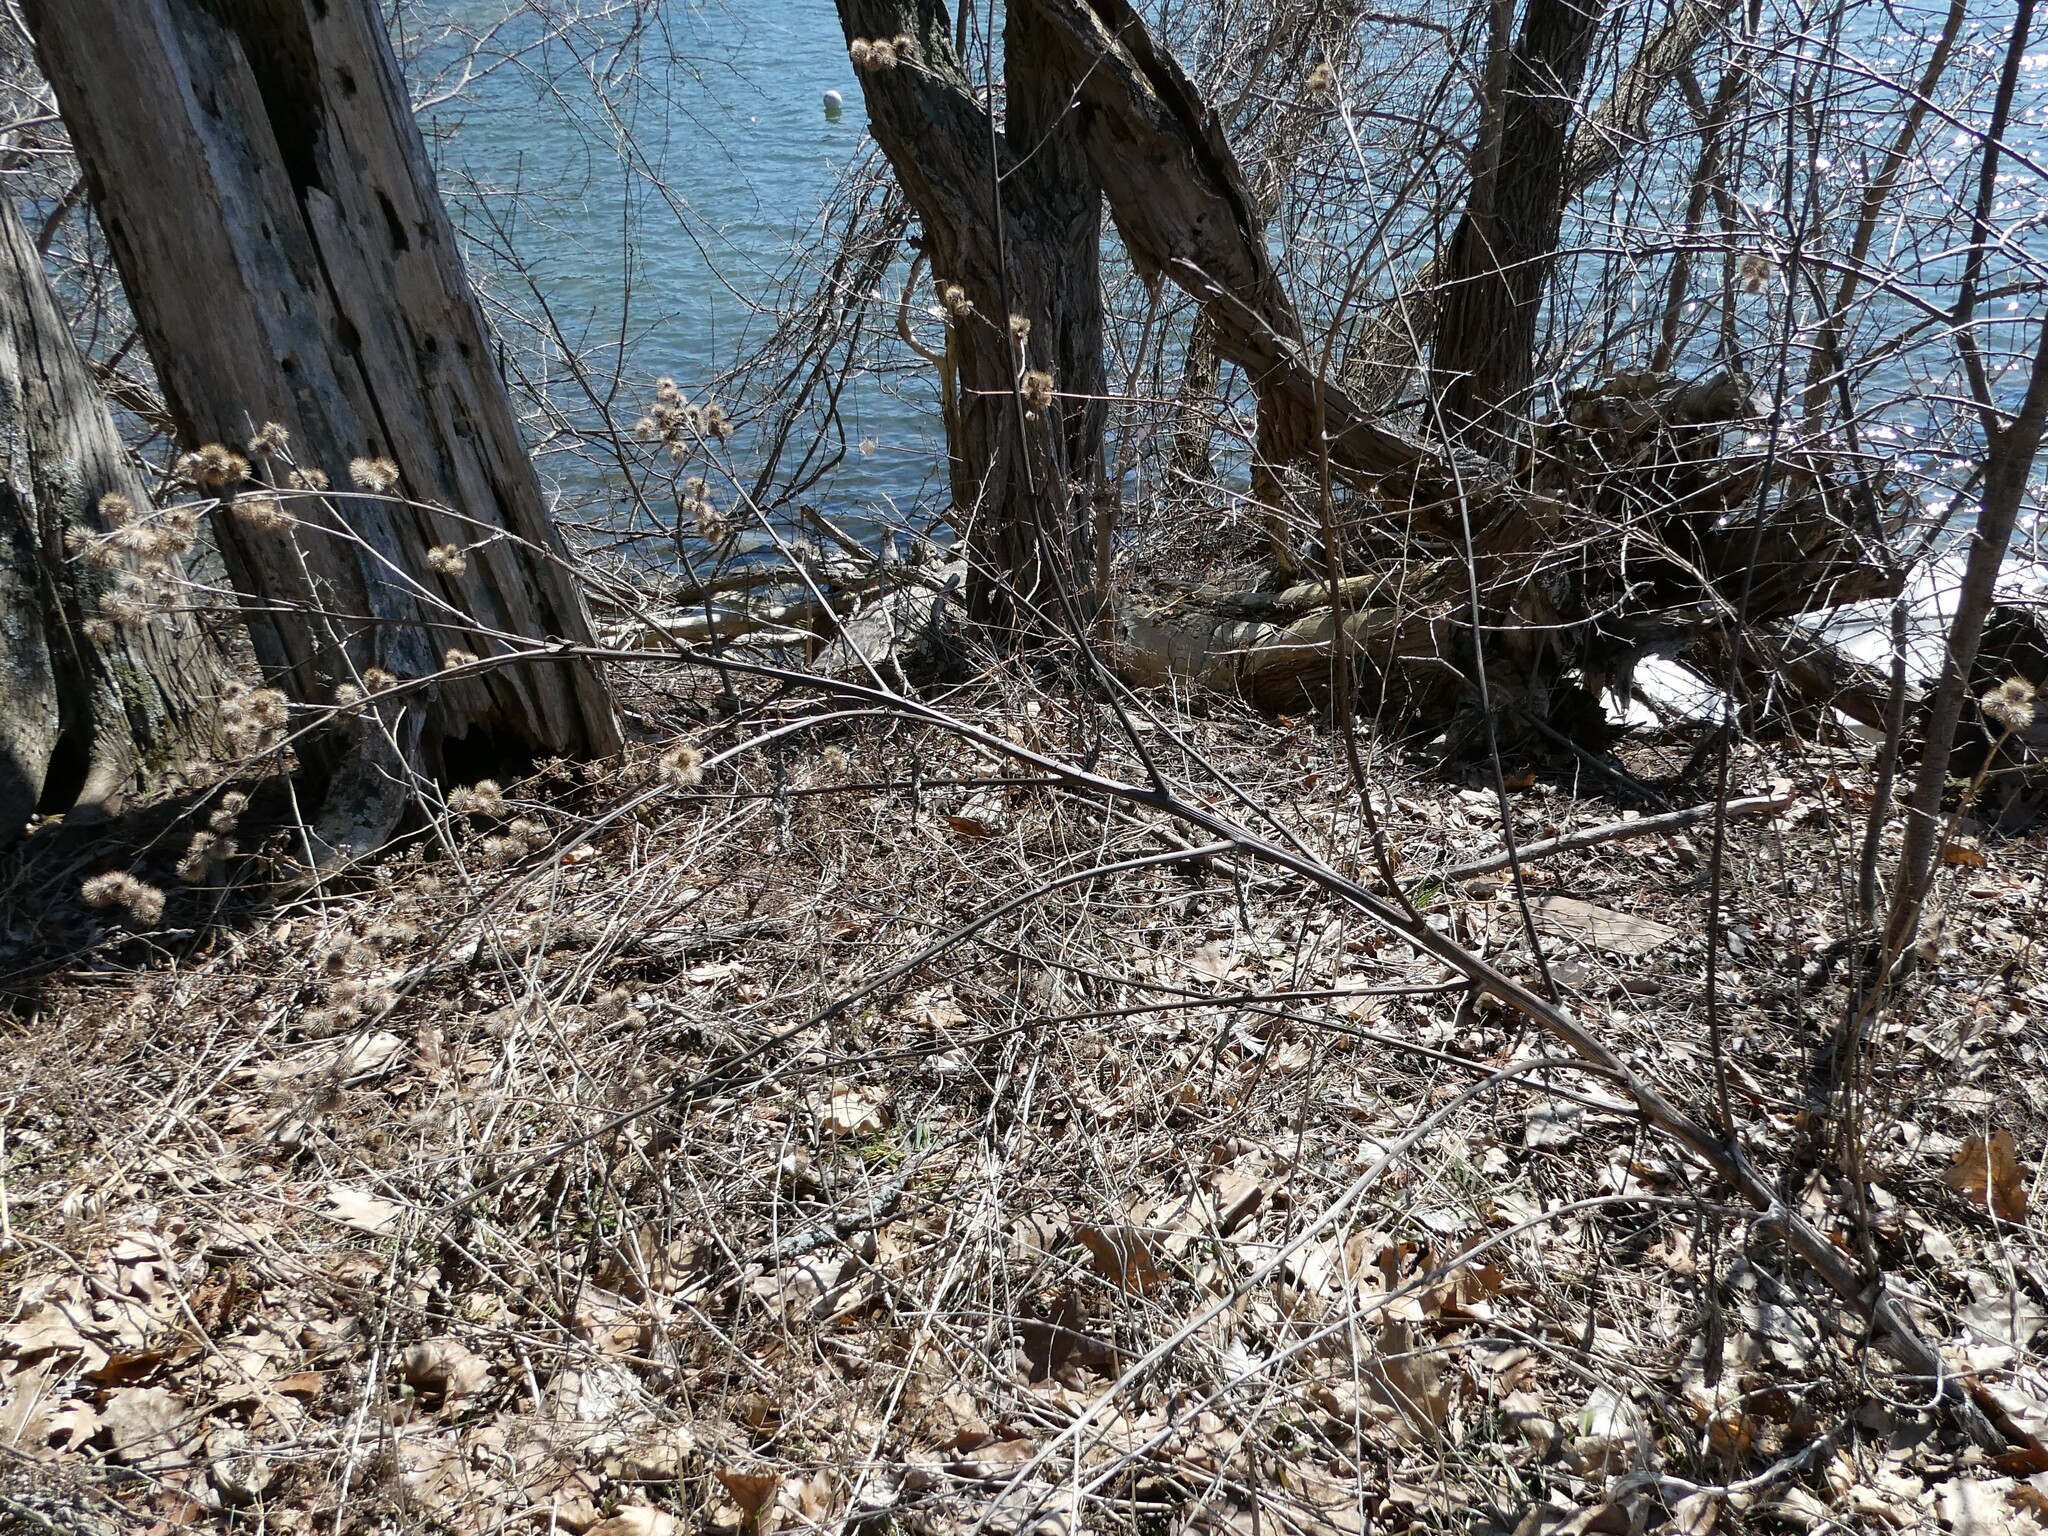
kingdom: Plantae
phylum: Tracheophyta
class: Magnoliopsida
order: Asterales
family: Asteraceae
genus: Arctium
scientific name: Arctium minus
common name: Lesser burdock
